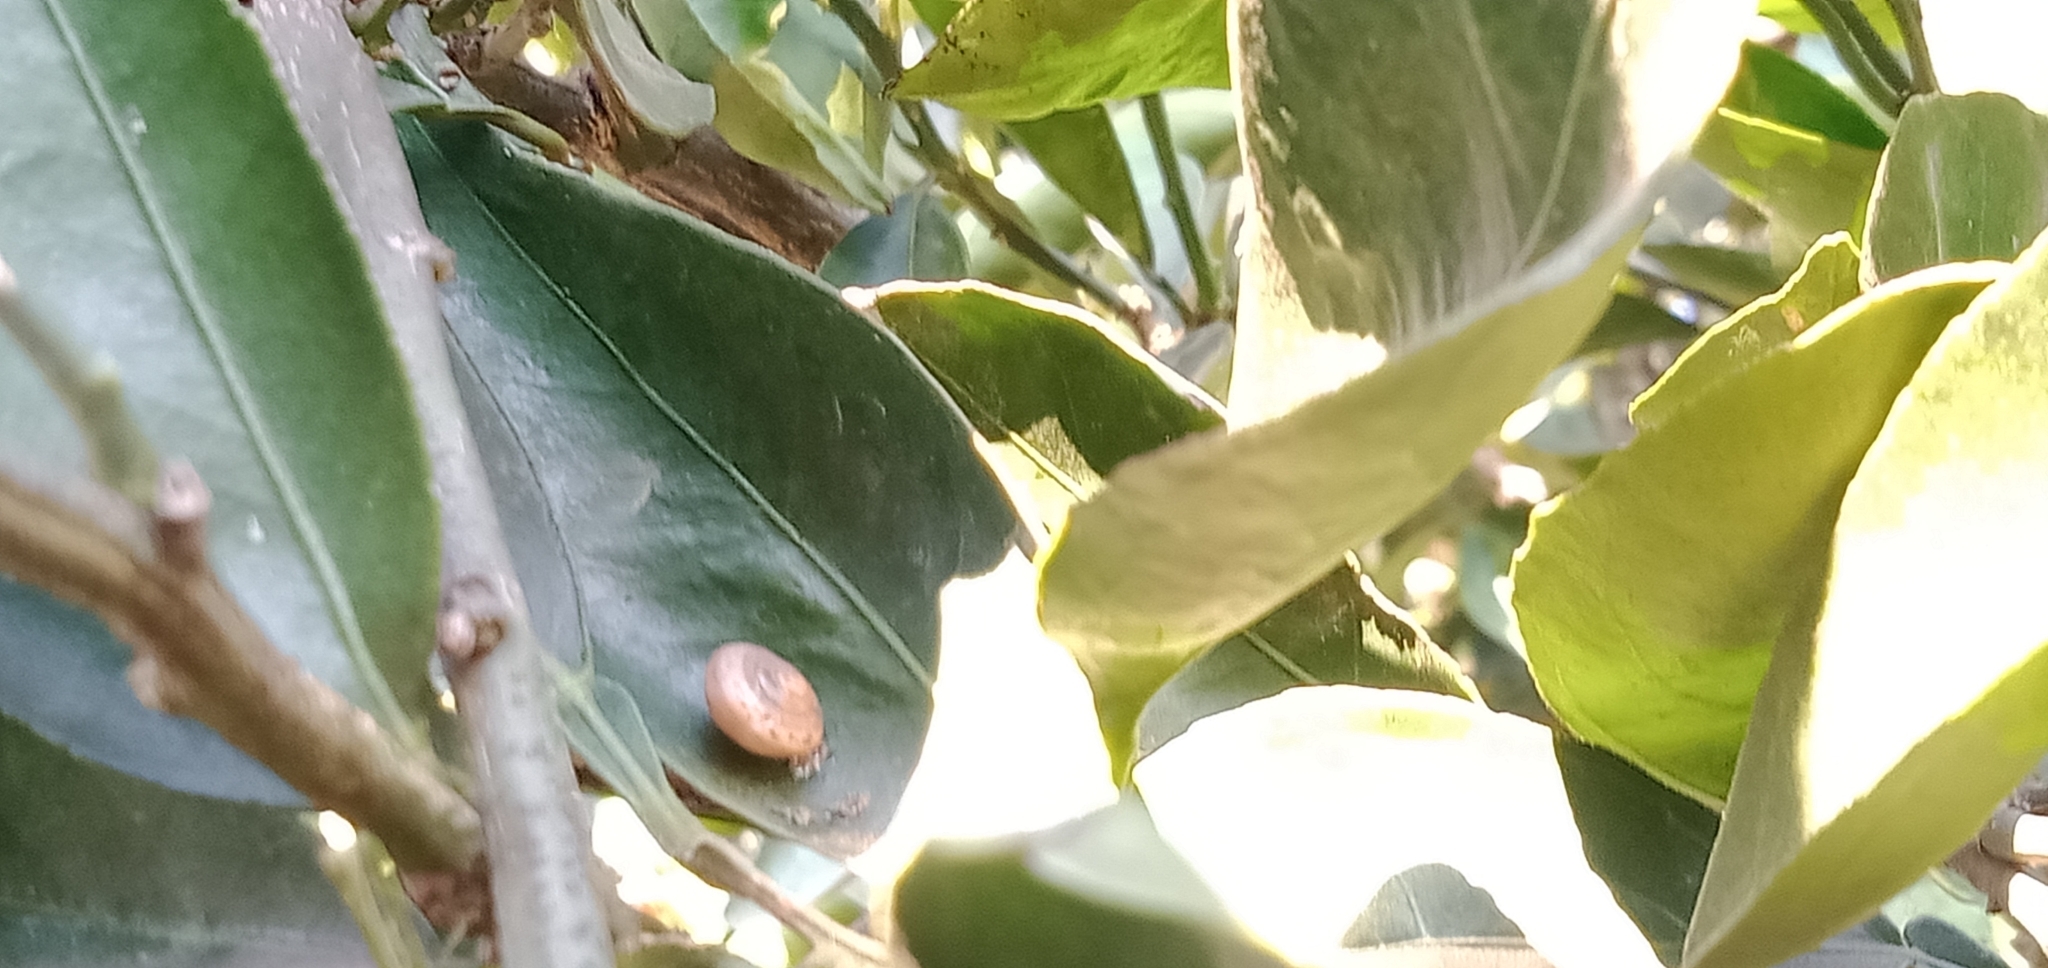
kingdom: Animalia
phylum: Mollusca
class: Gastropoda
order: Stylommatophora
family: Camaenidae
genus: Bradybaena
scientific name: Bradybaena similaris
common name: Asian trampsnail
